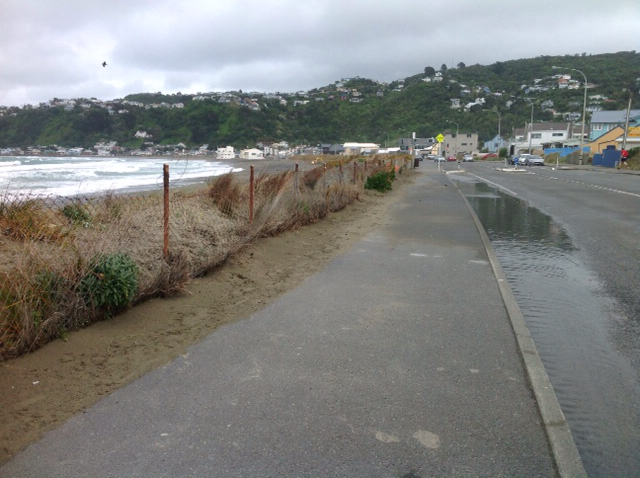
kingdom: Plantae
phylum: Tracheophyta
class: Liliopsida
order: Poales
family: Cyperaceae
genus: Ficinia
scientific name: Ficinia spiralis
